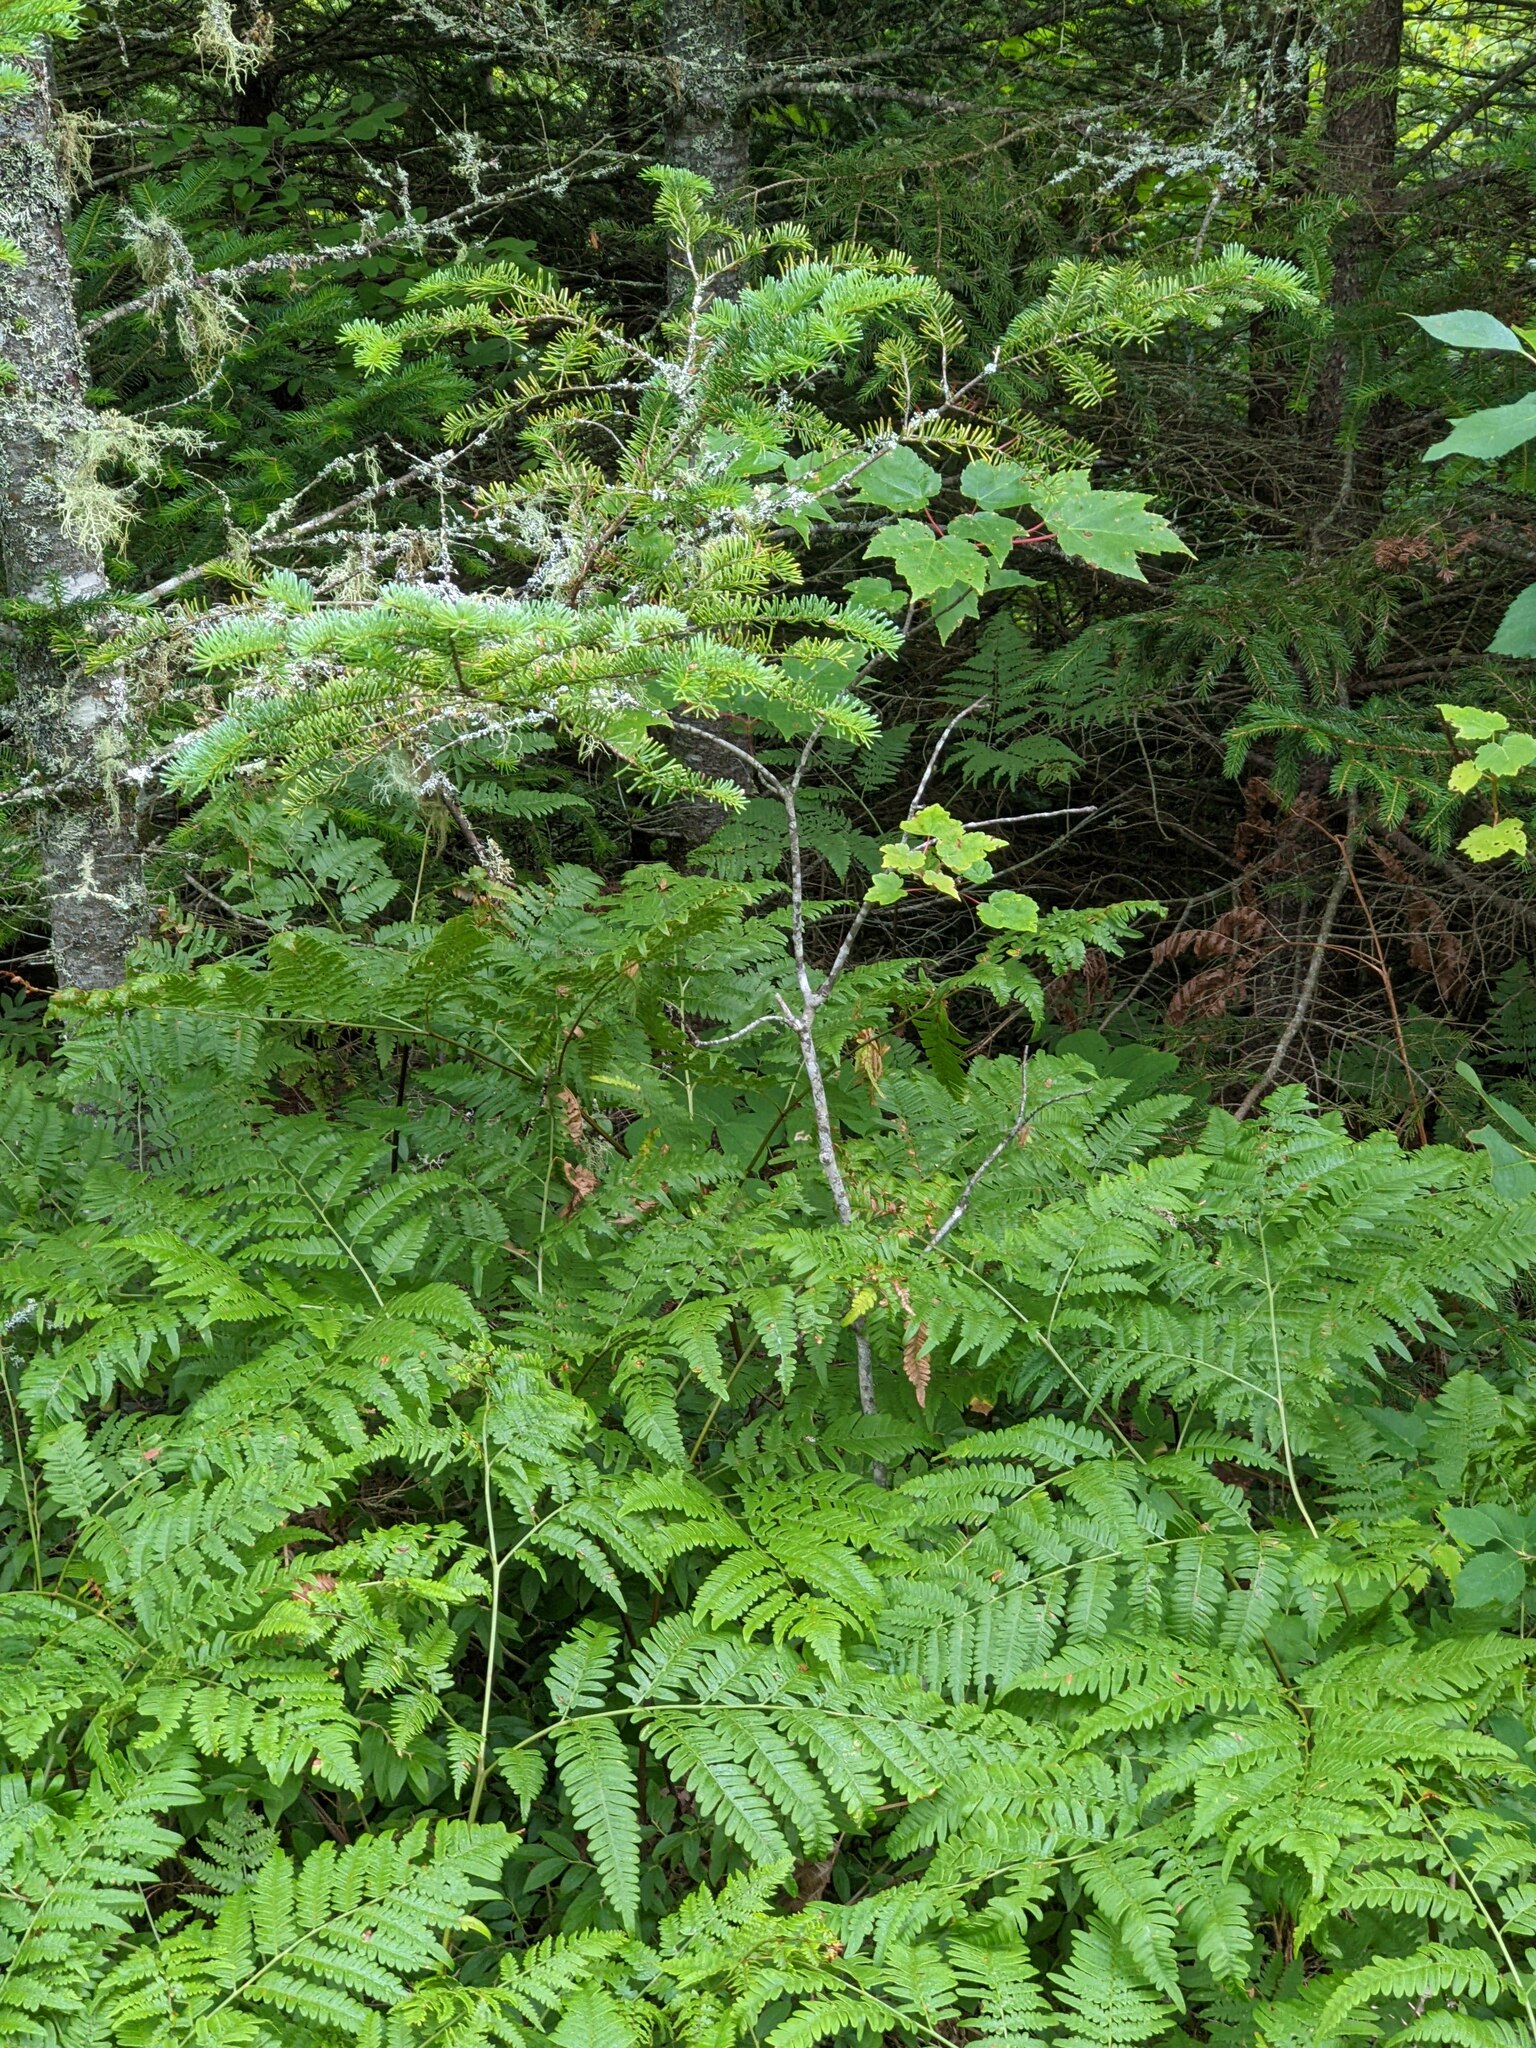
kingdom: Plantae
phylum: Tracheophyta
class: Polypodiopsida
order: Polypodiales
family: Dennstaedtiaceae
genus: Pteridium
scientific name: Pteridium aquilinum
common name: Bracken
